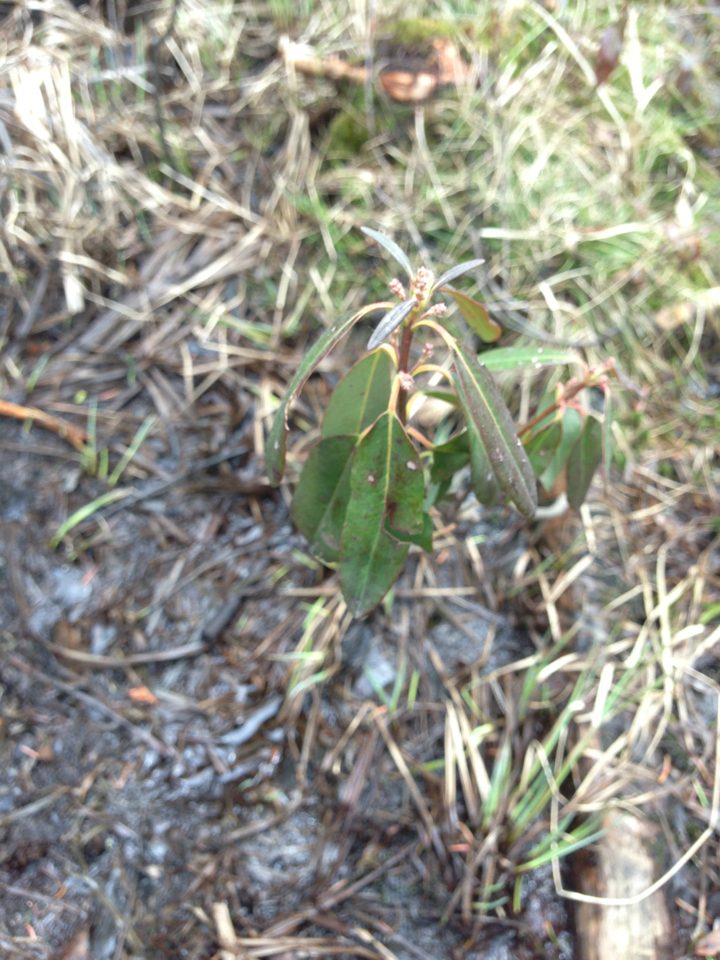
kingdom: Plantae
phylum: Tracheophyta
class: Magnoliopsida
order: Ericales
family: Ericaceae
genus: Kalmia
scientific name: Kalmia angustifolia
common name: Sheep-laurel
